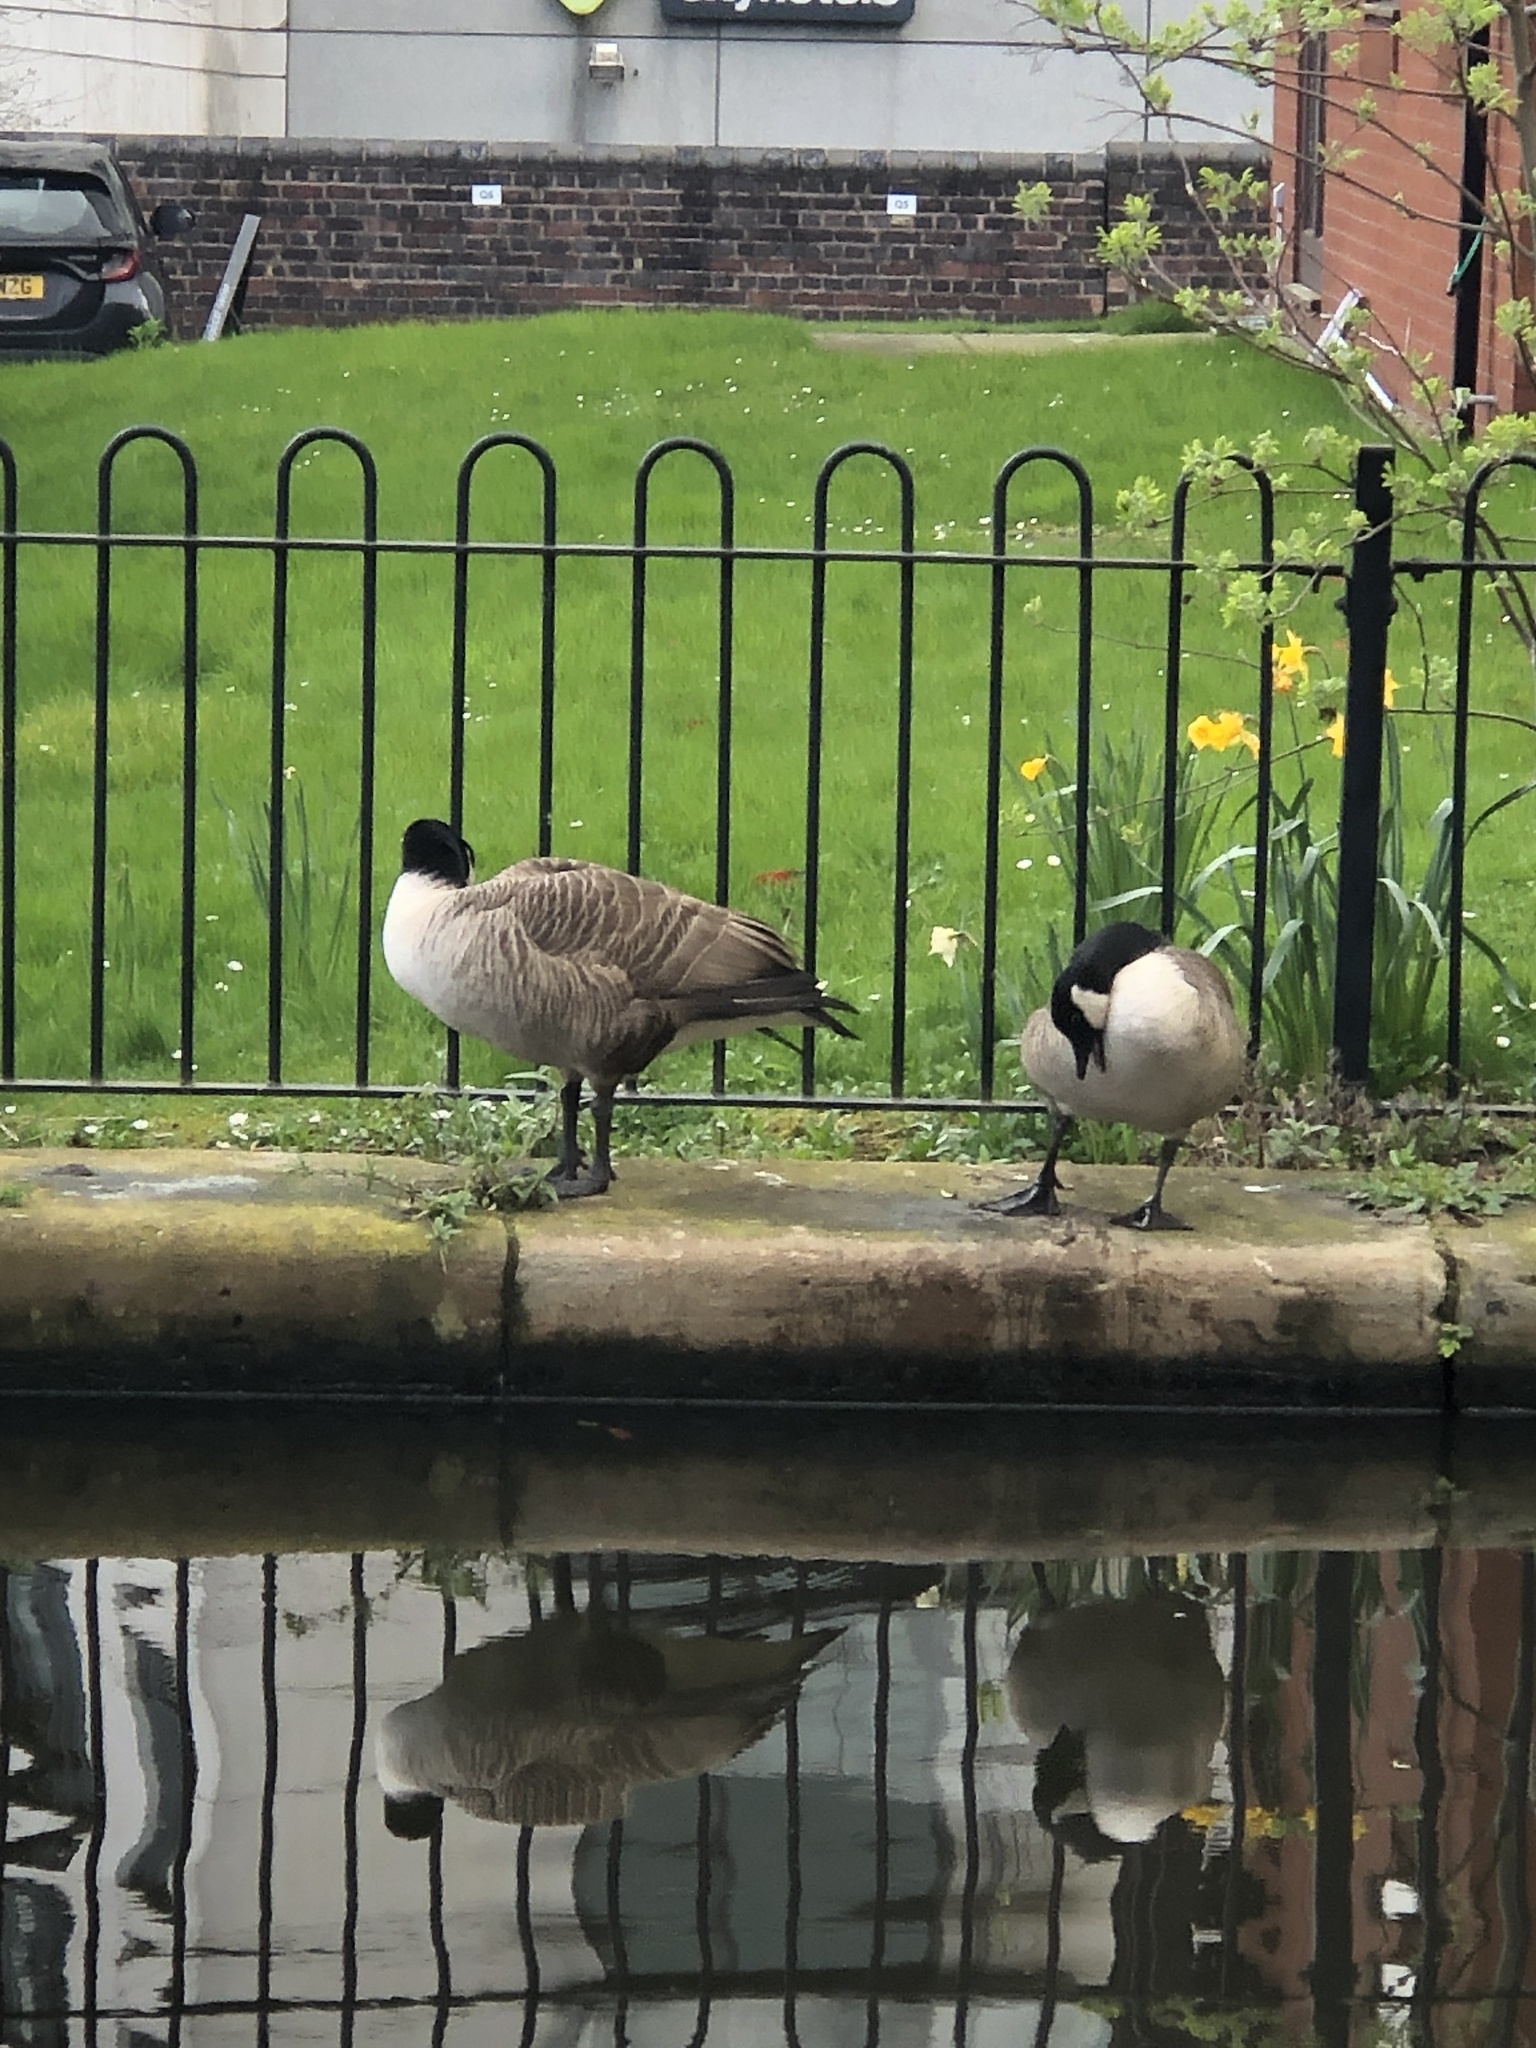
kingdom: Animalia
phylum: Chordata
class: Aves
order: Anseriformes
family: Anatidae
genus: Branta
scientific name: Branta canadensis
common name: Canada goose
